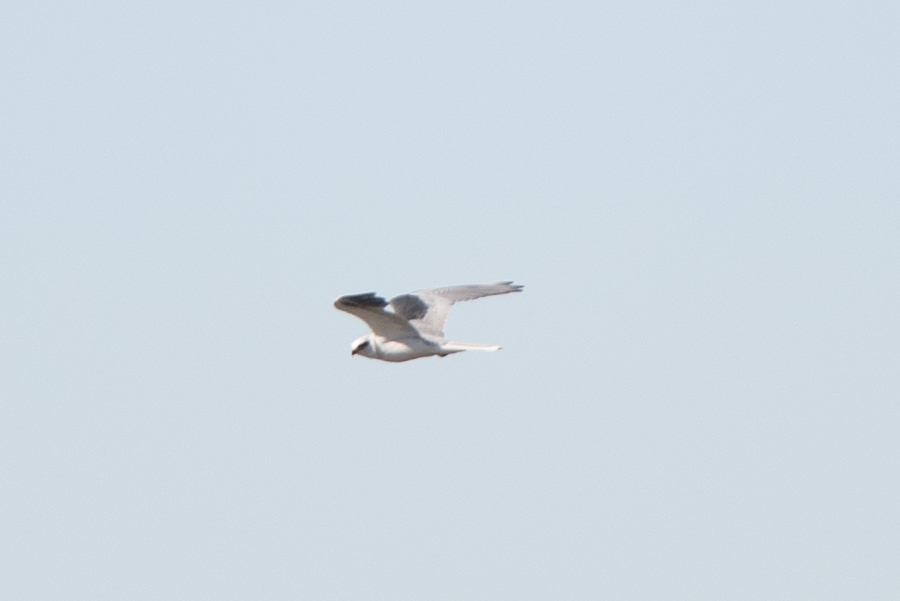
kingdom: Animalia
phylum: Chordata
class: Aves
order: Accipitriformes
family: Accipitridae
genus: Elanus
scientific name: Elanus leucurus
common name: White-tailed kite
